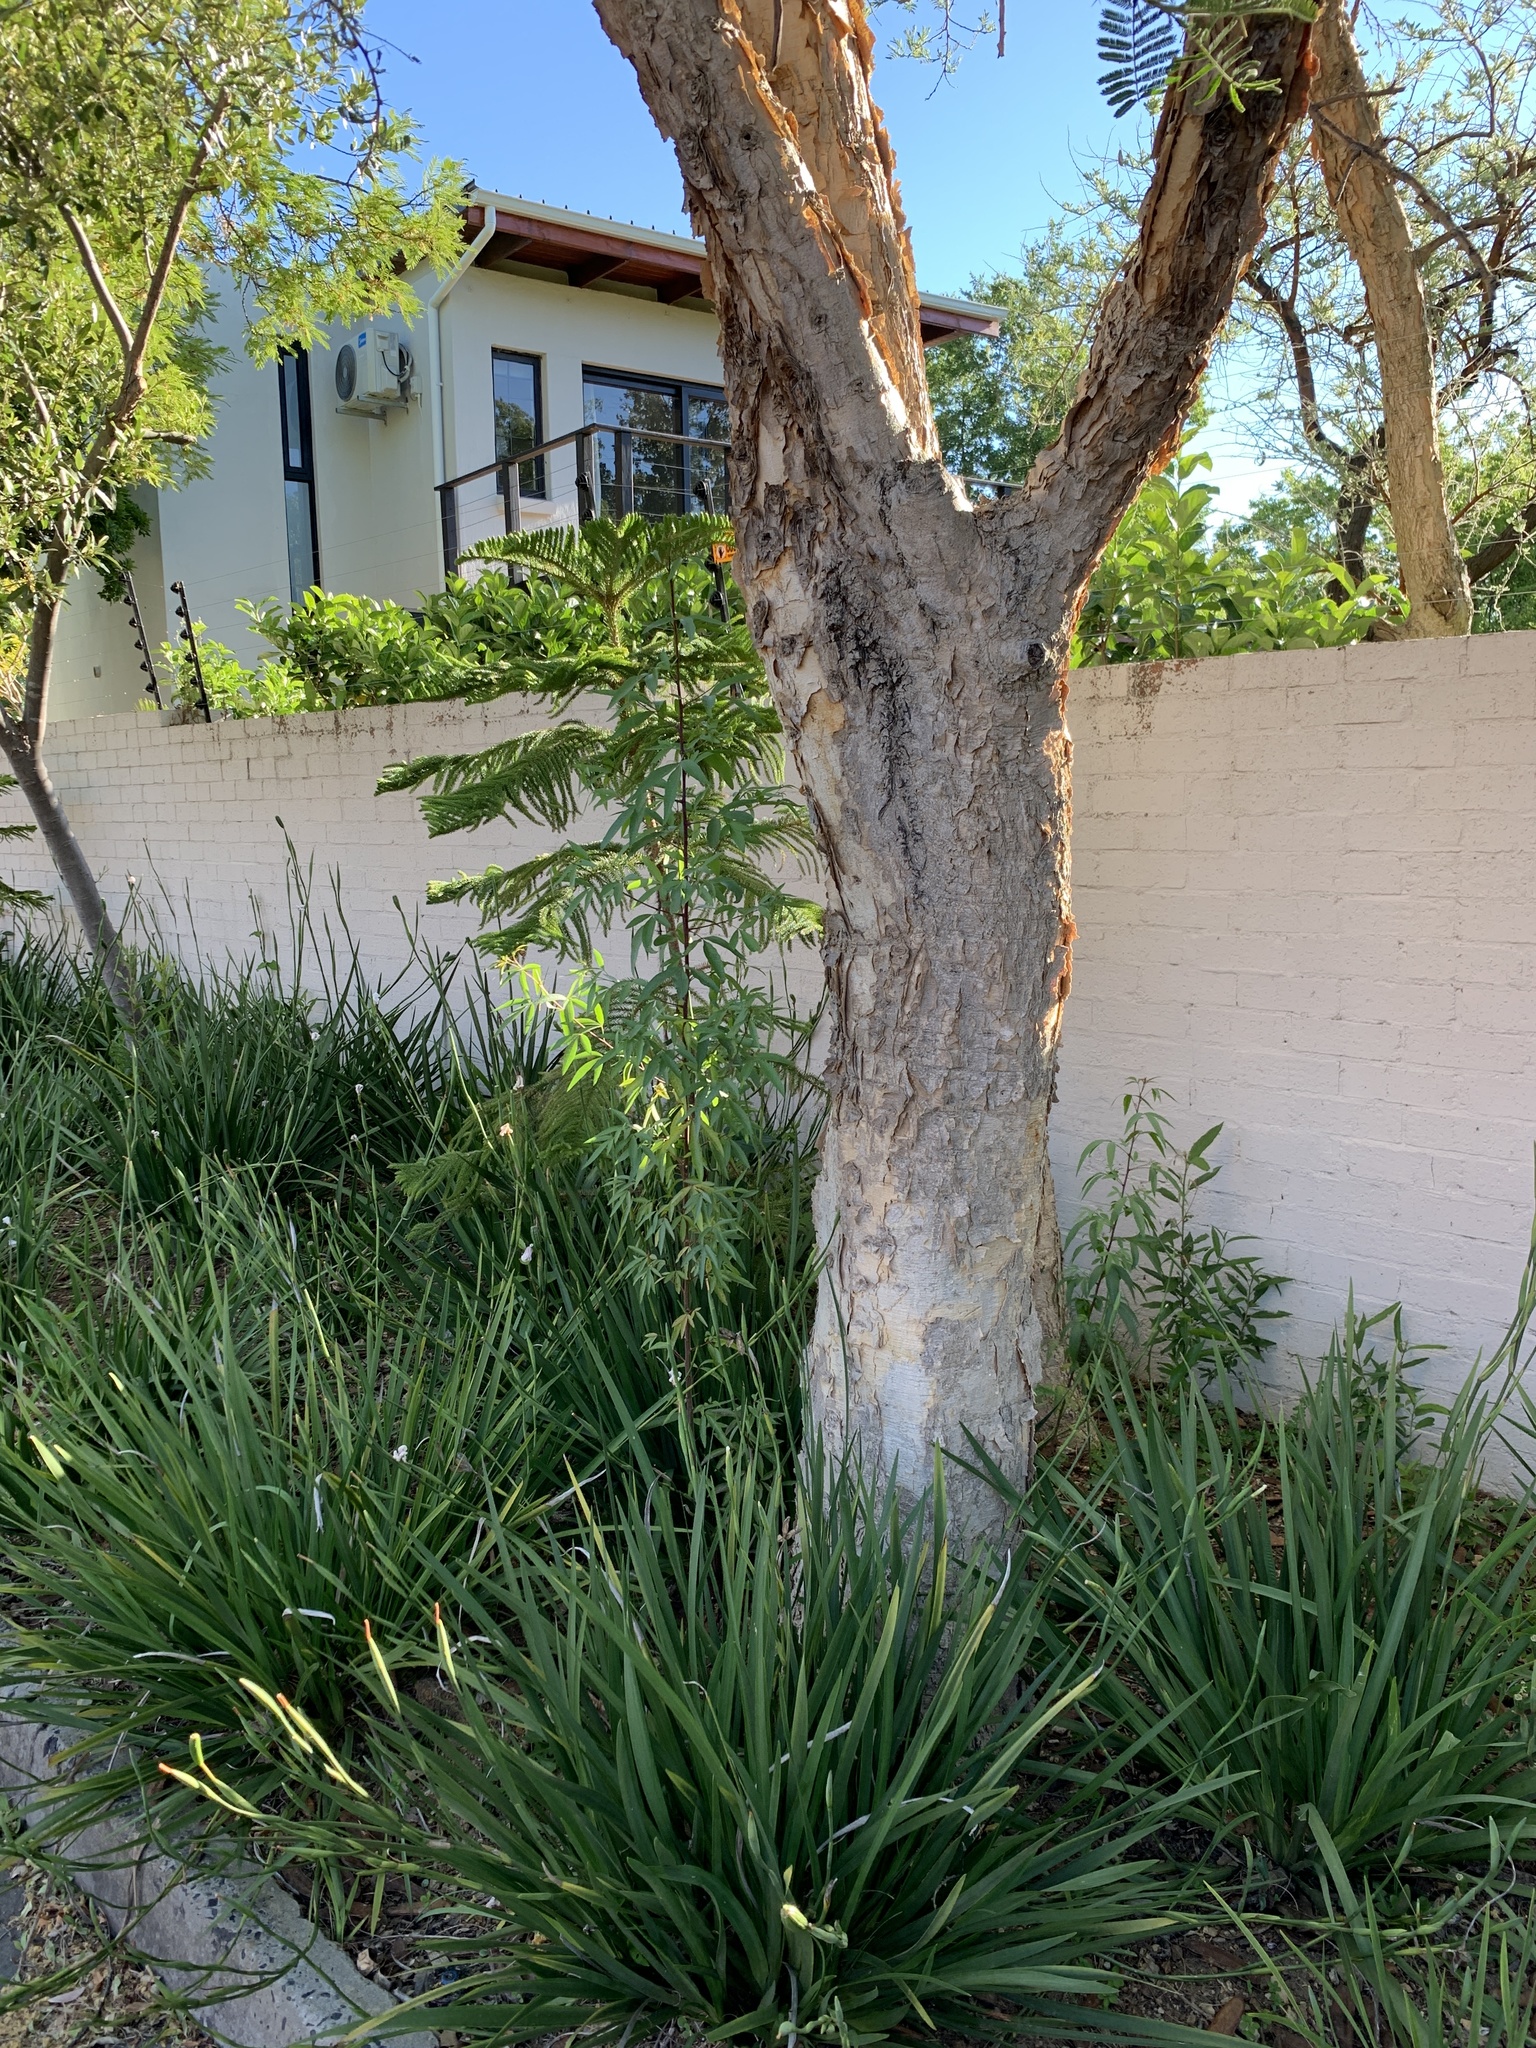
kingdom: Plantae
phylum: Tracheophyta
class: Magnoliopsida
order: Sapindales
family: Anacardiaceae
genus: Searsia
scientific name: Searsia pendulina
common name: White karee
